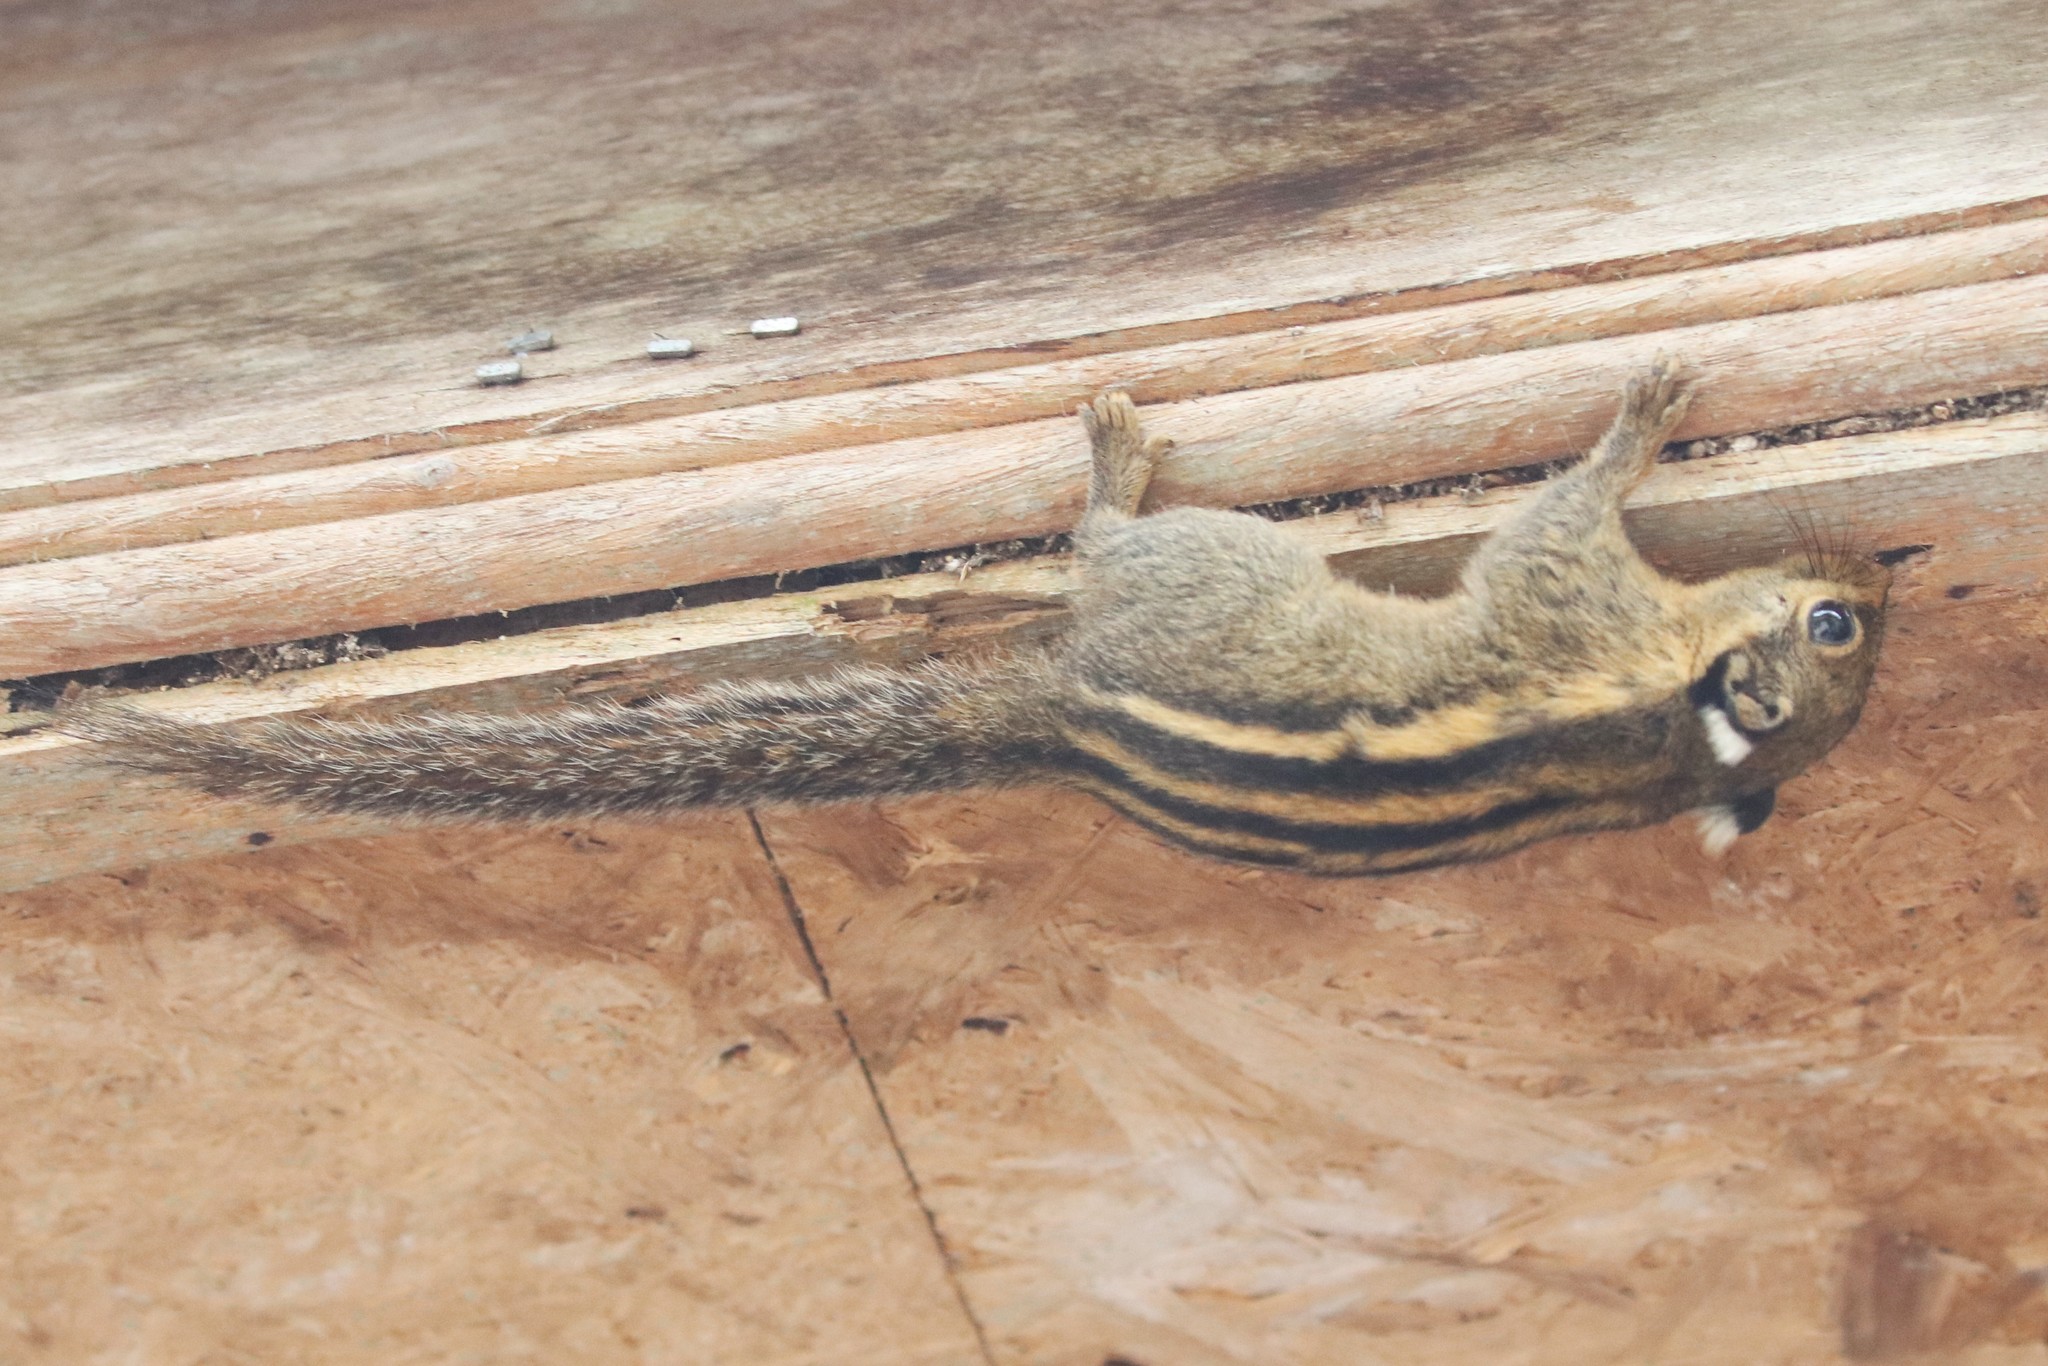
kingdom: Animalia
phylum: Chordata
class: Mammalia
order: Rodentia
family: Sciuridae
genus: Tamiops
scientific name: Tamiops mcclellandii
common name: Himalayan striped squirrel
